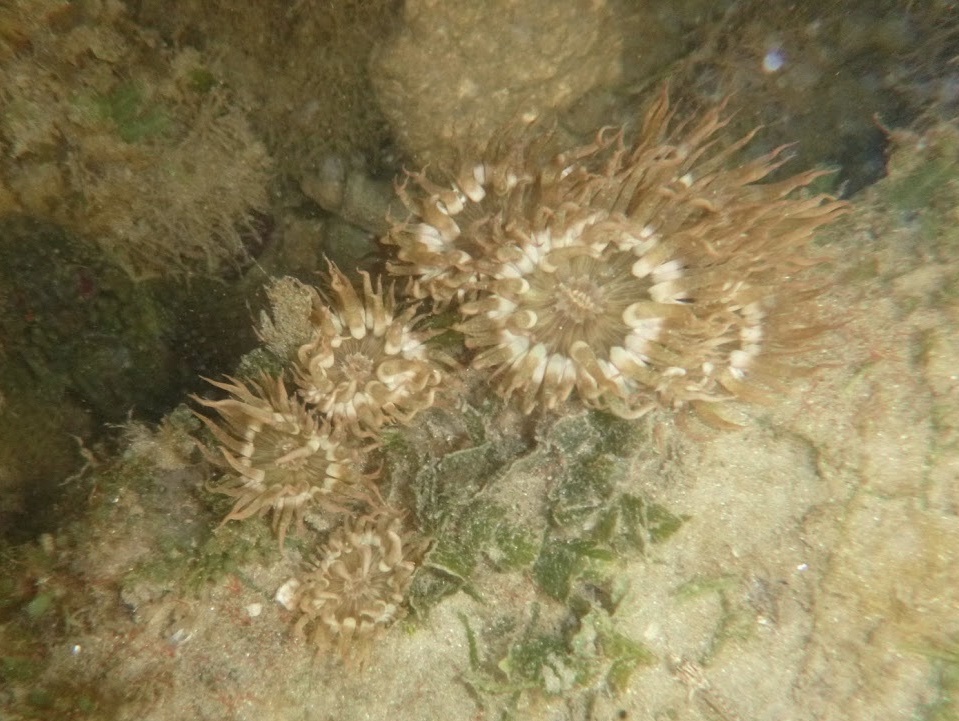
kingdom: Animalia
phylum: Cnidaria
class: Anthozoa
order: Actiniaria
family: Aiptasiidae
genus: Exaiptasia
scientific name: Exaiptasia diaphana
